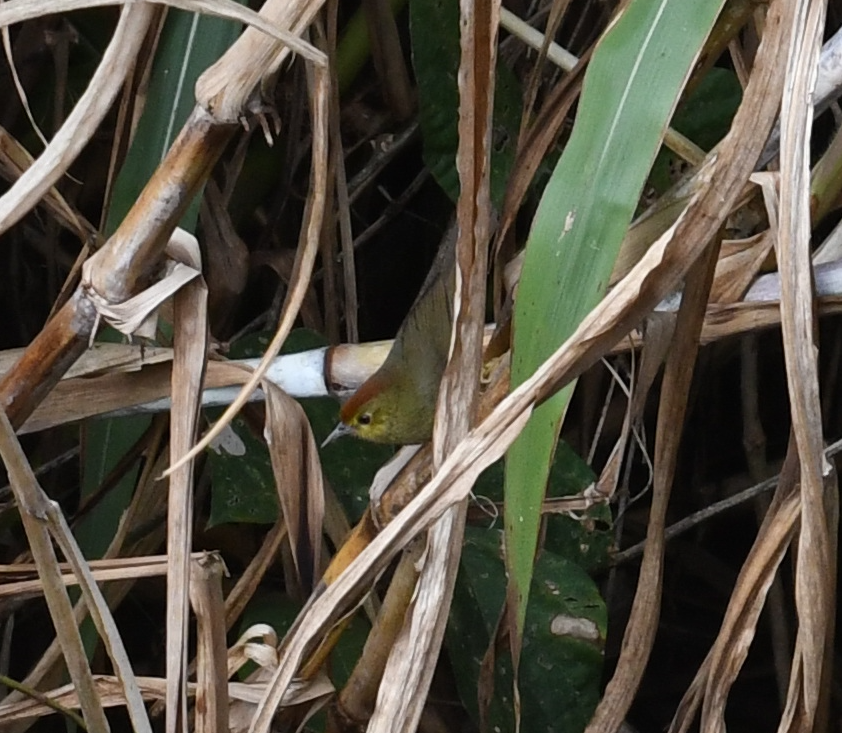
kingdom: Animalia
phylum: Chordata
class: Aves
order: Passeriformes
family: Timaliidae
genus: Stachyridopsis
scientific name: Stachyridopsis ruficeps
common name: Rufous-capped babbler
